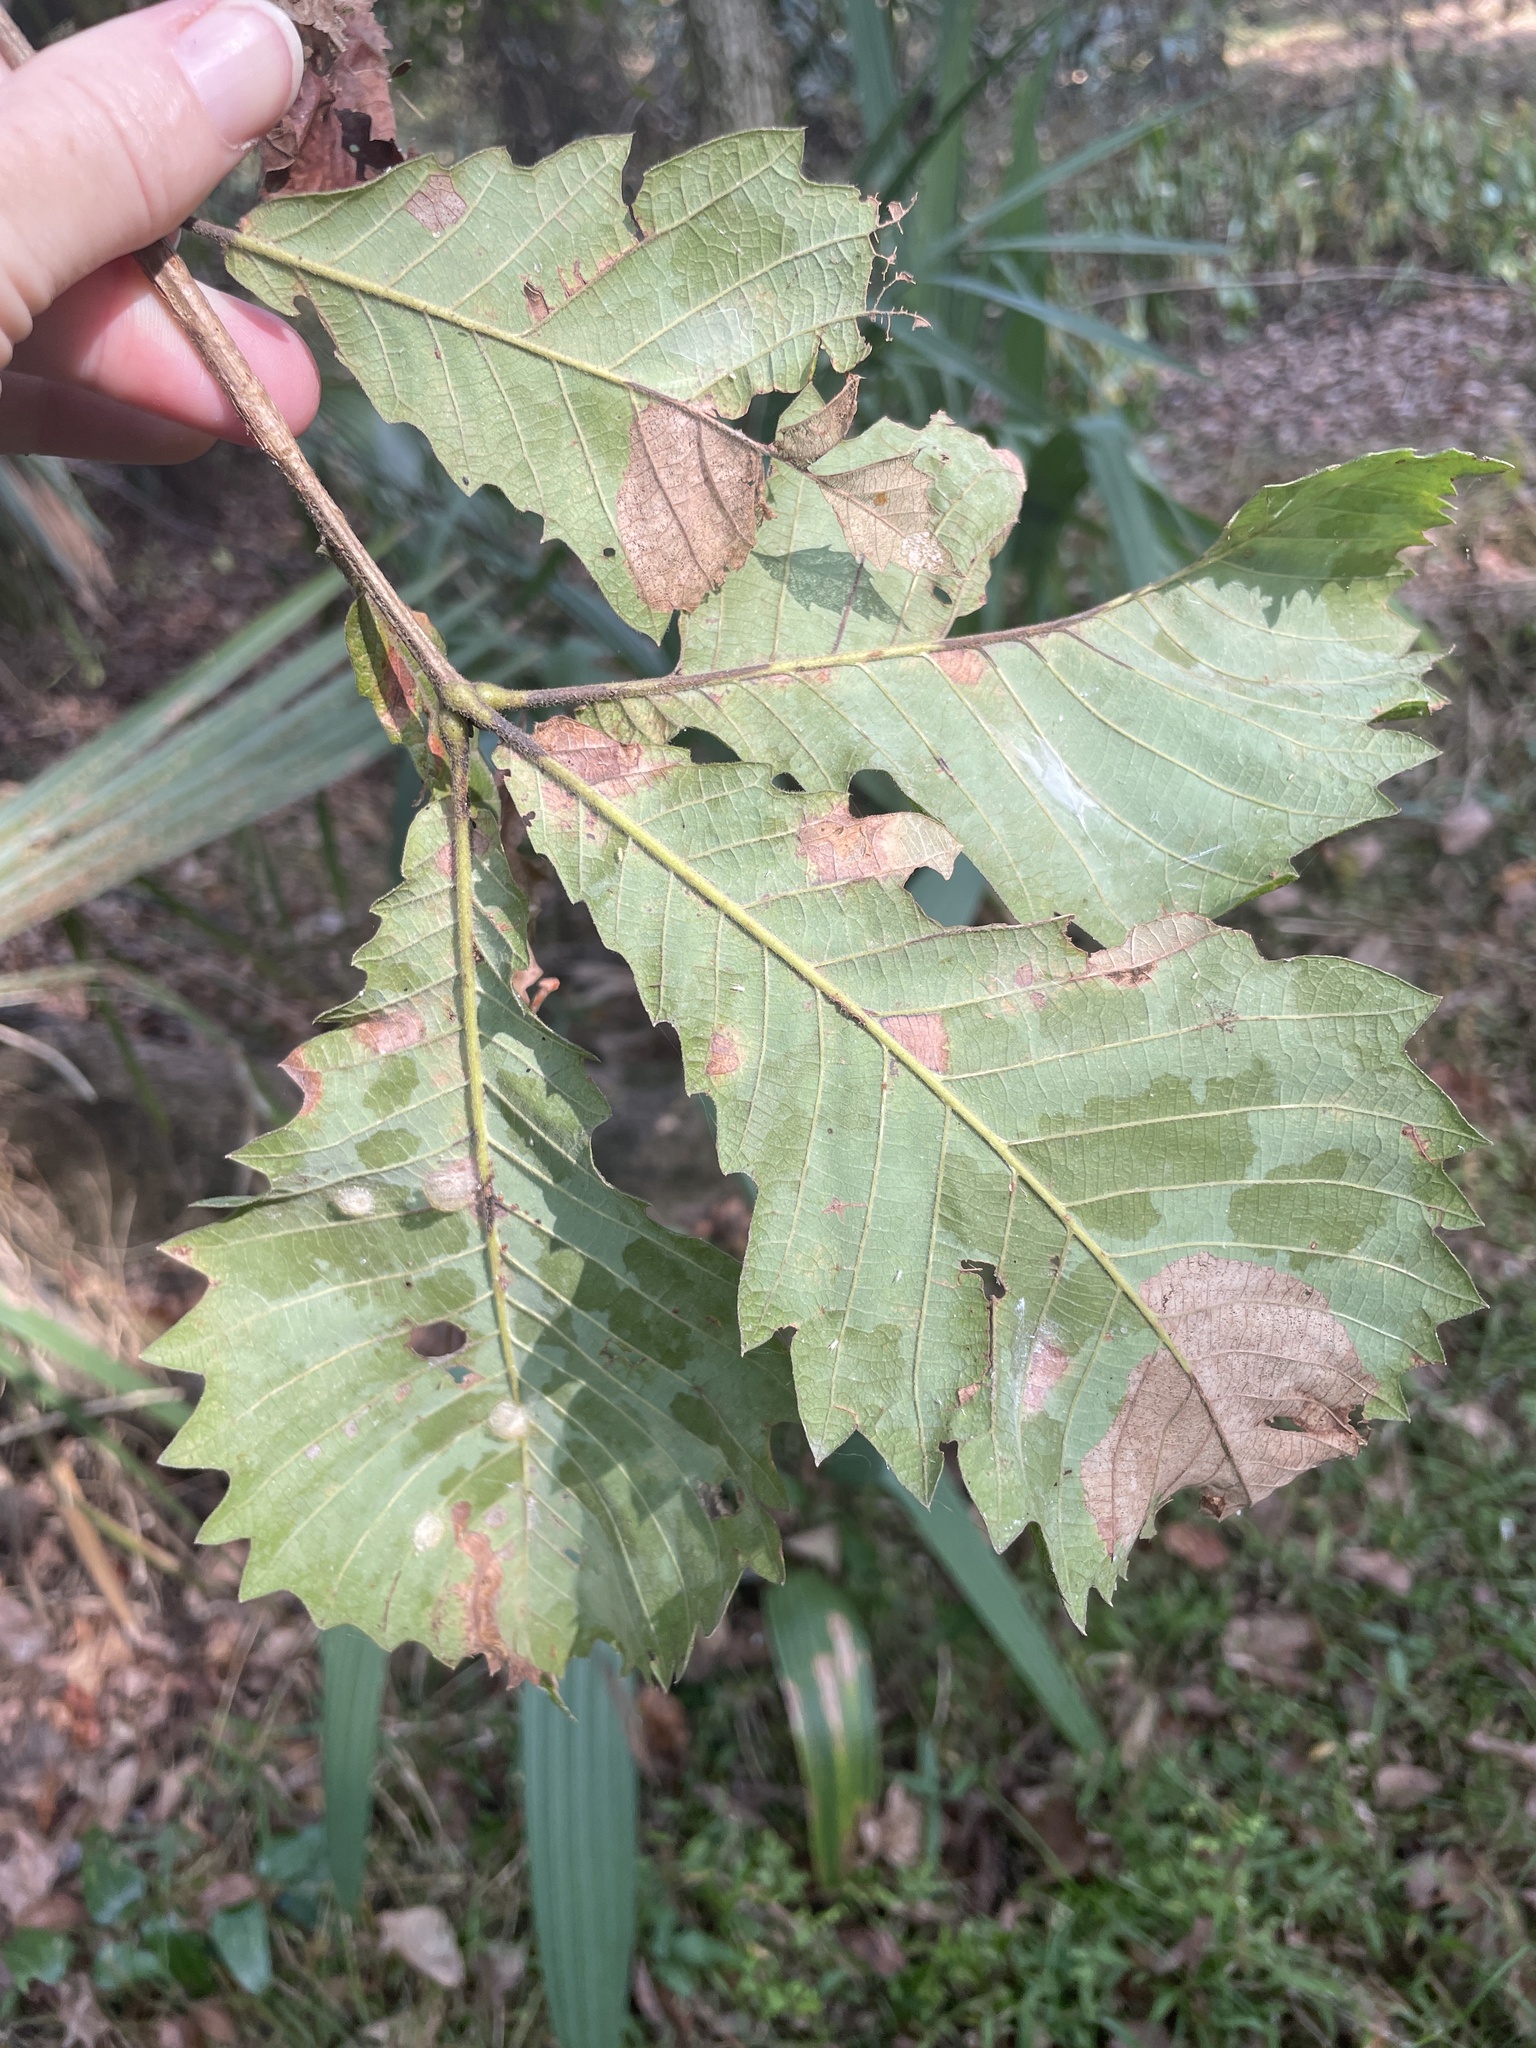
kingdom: Plantae
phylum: Tracheophyta
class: Magnoliopsida
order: Fagales
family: Fagaceae
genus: Quercus
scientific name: Quercus michauxii
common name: Swamp chestnut oak
